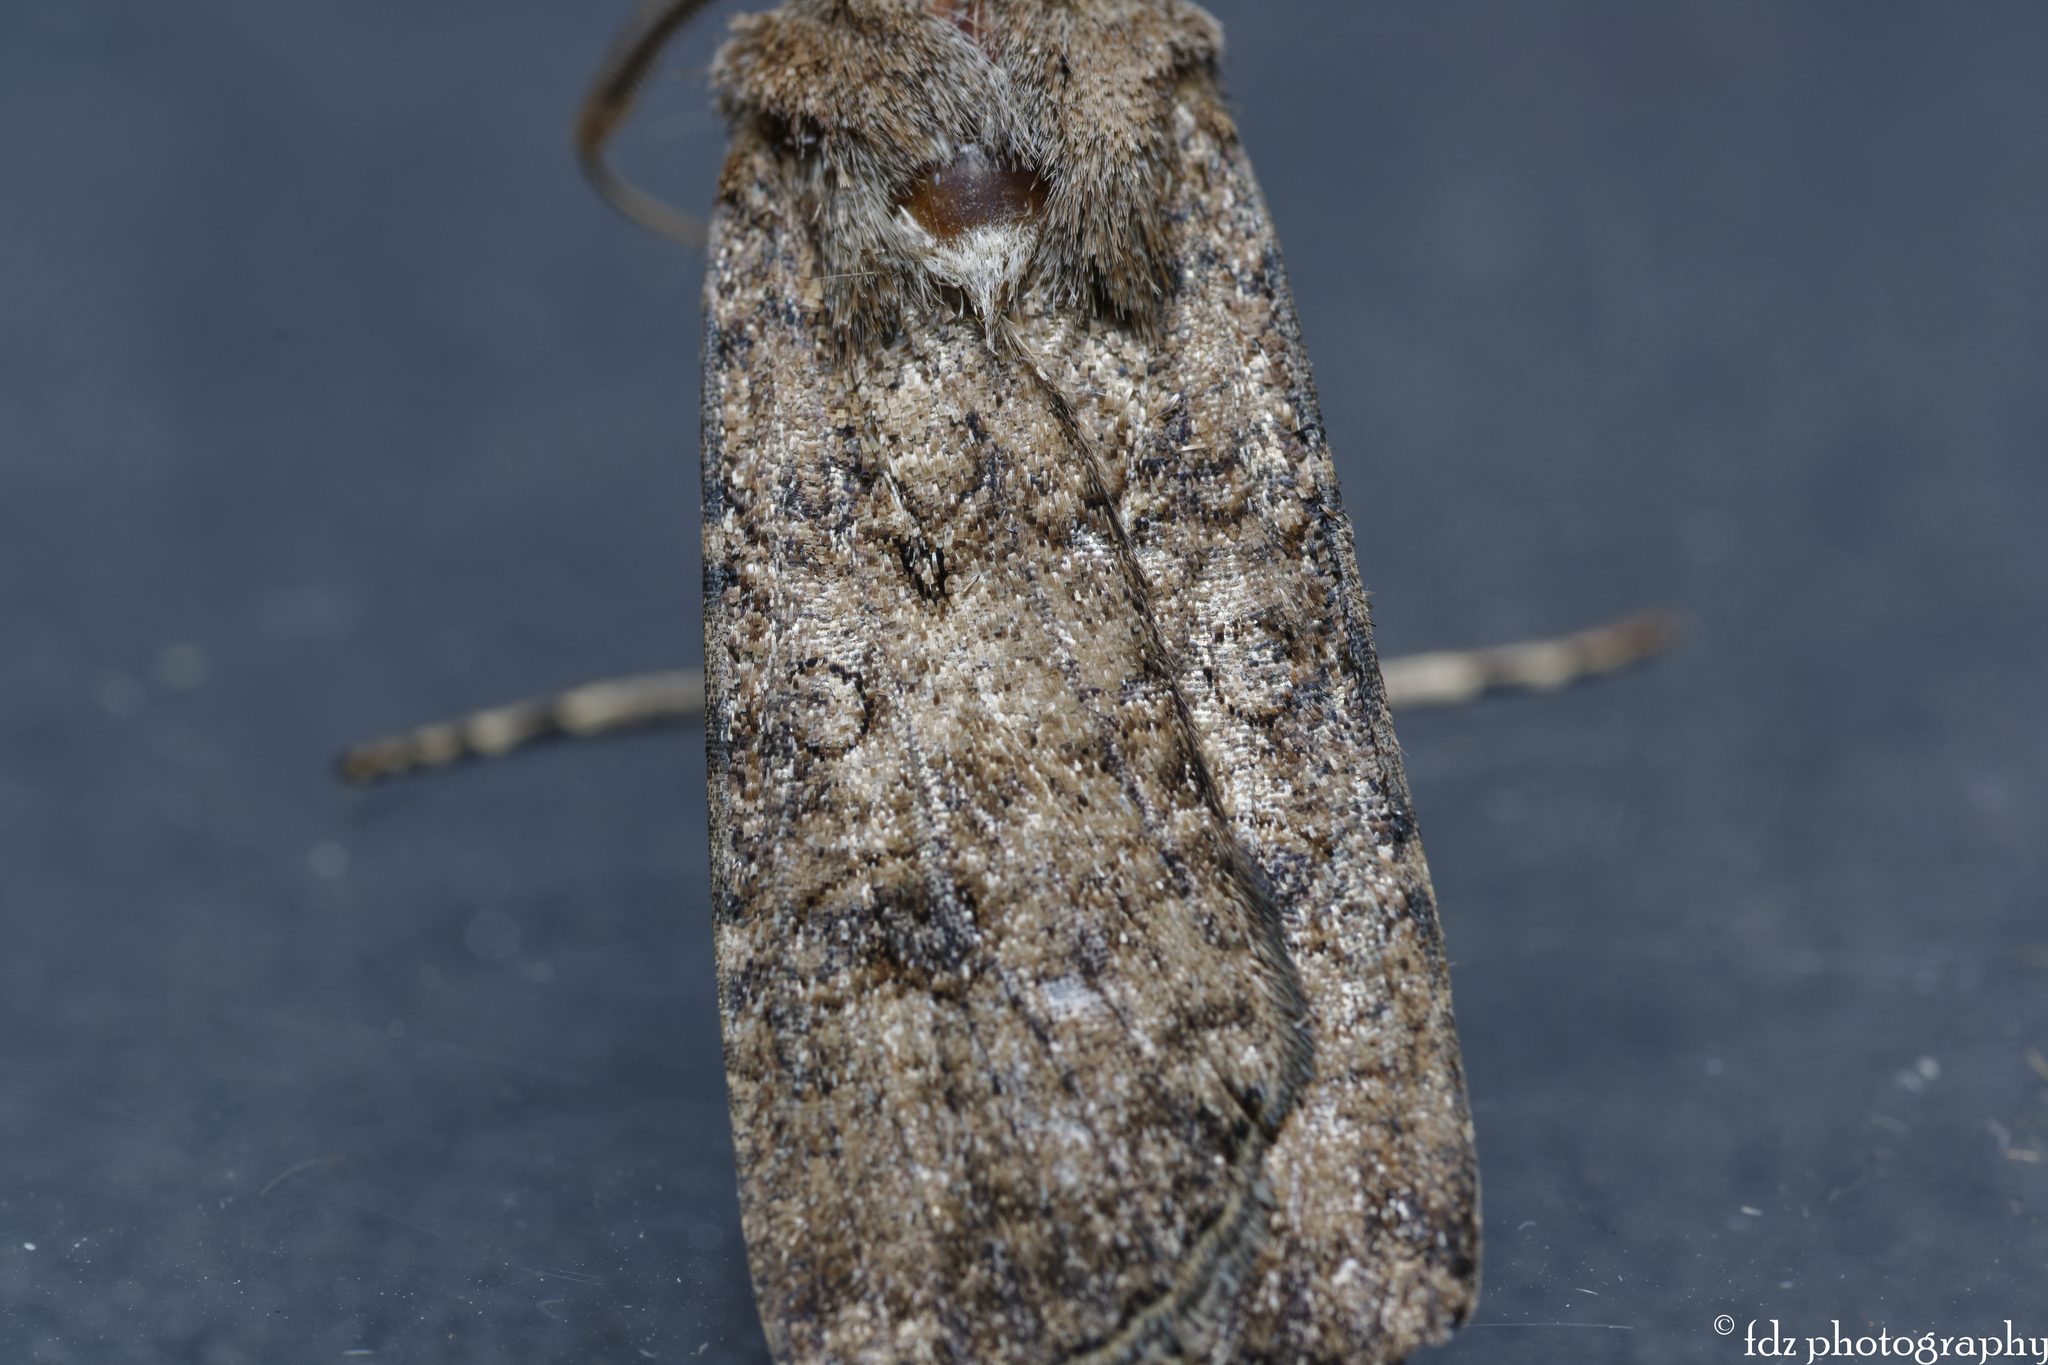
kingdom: Animalia
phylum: Arthropoda
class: Insecta
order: Lepidoptera
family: Noctuidae
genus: Agrotis
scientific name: Agrotis segetum
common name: Turnip moth
